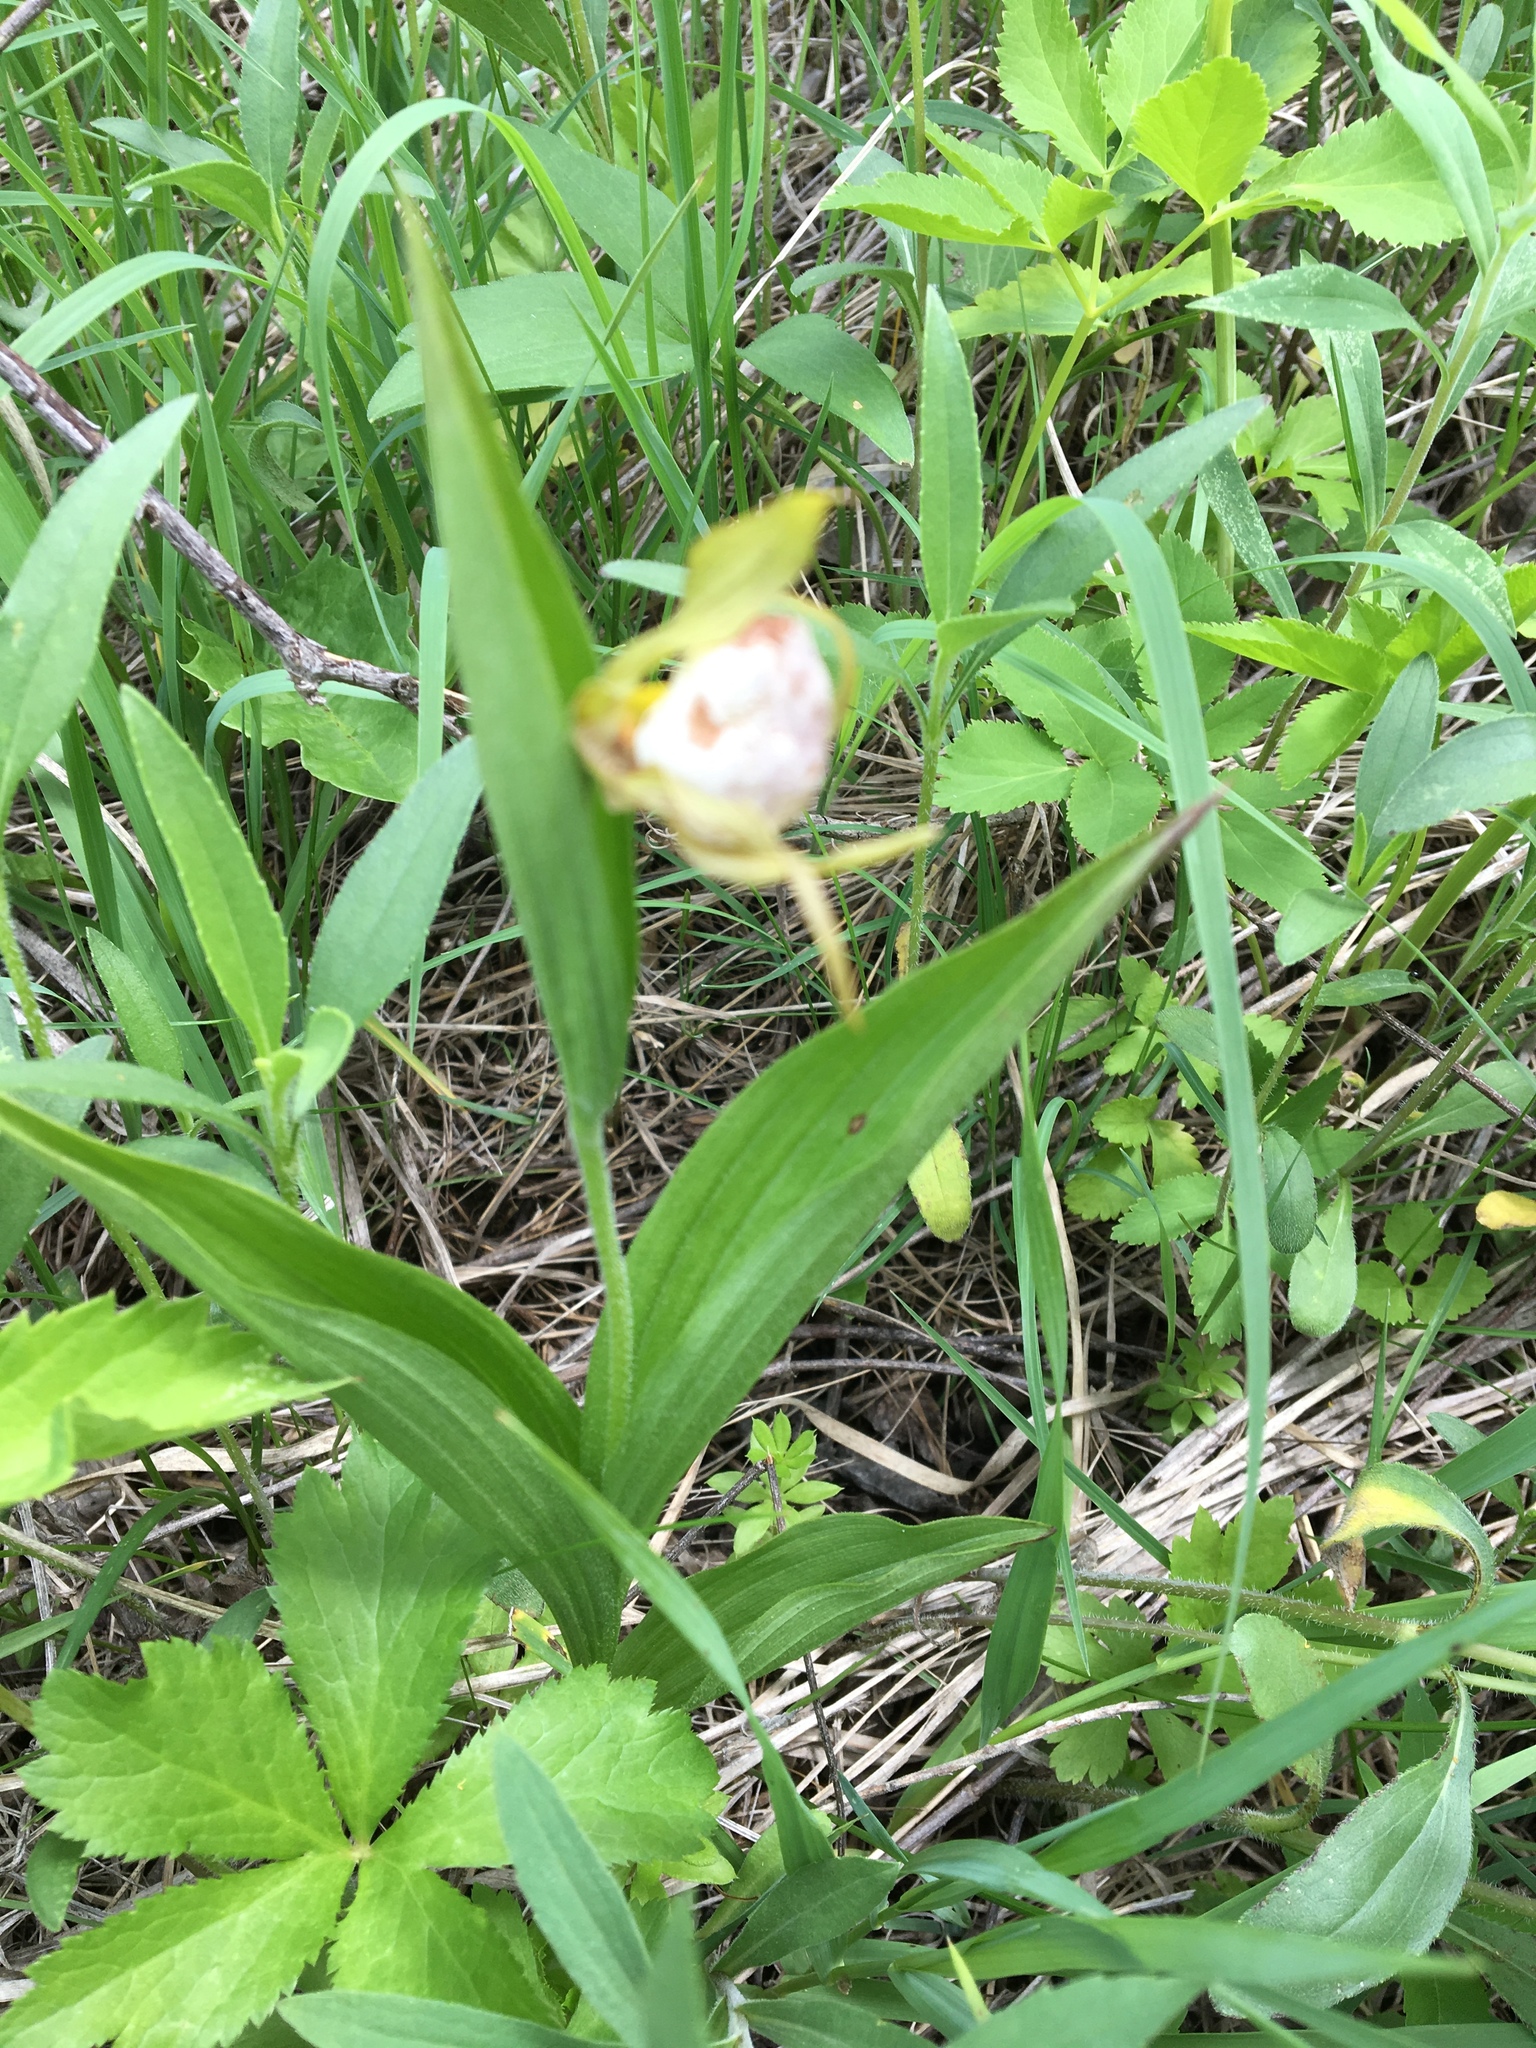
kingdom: Plantae
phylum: Tracheophyta
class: Liliopsida
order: Asparagales
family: Orchidaceae
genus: Cypripedium
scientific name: Cypripedium candidum
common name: White lady's-slipper
